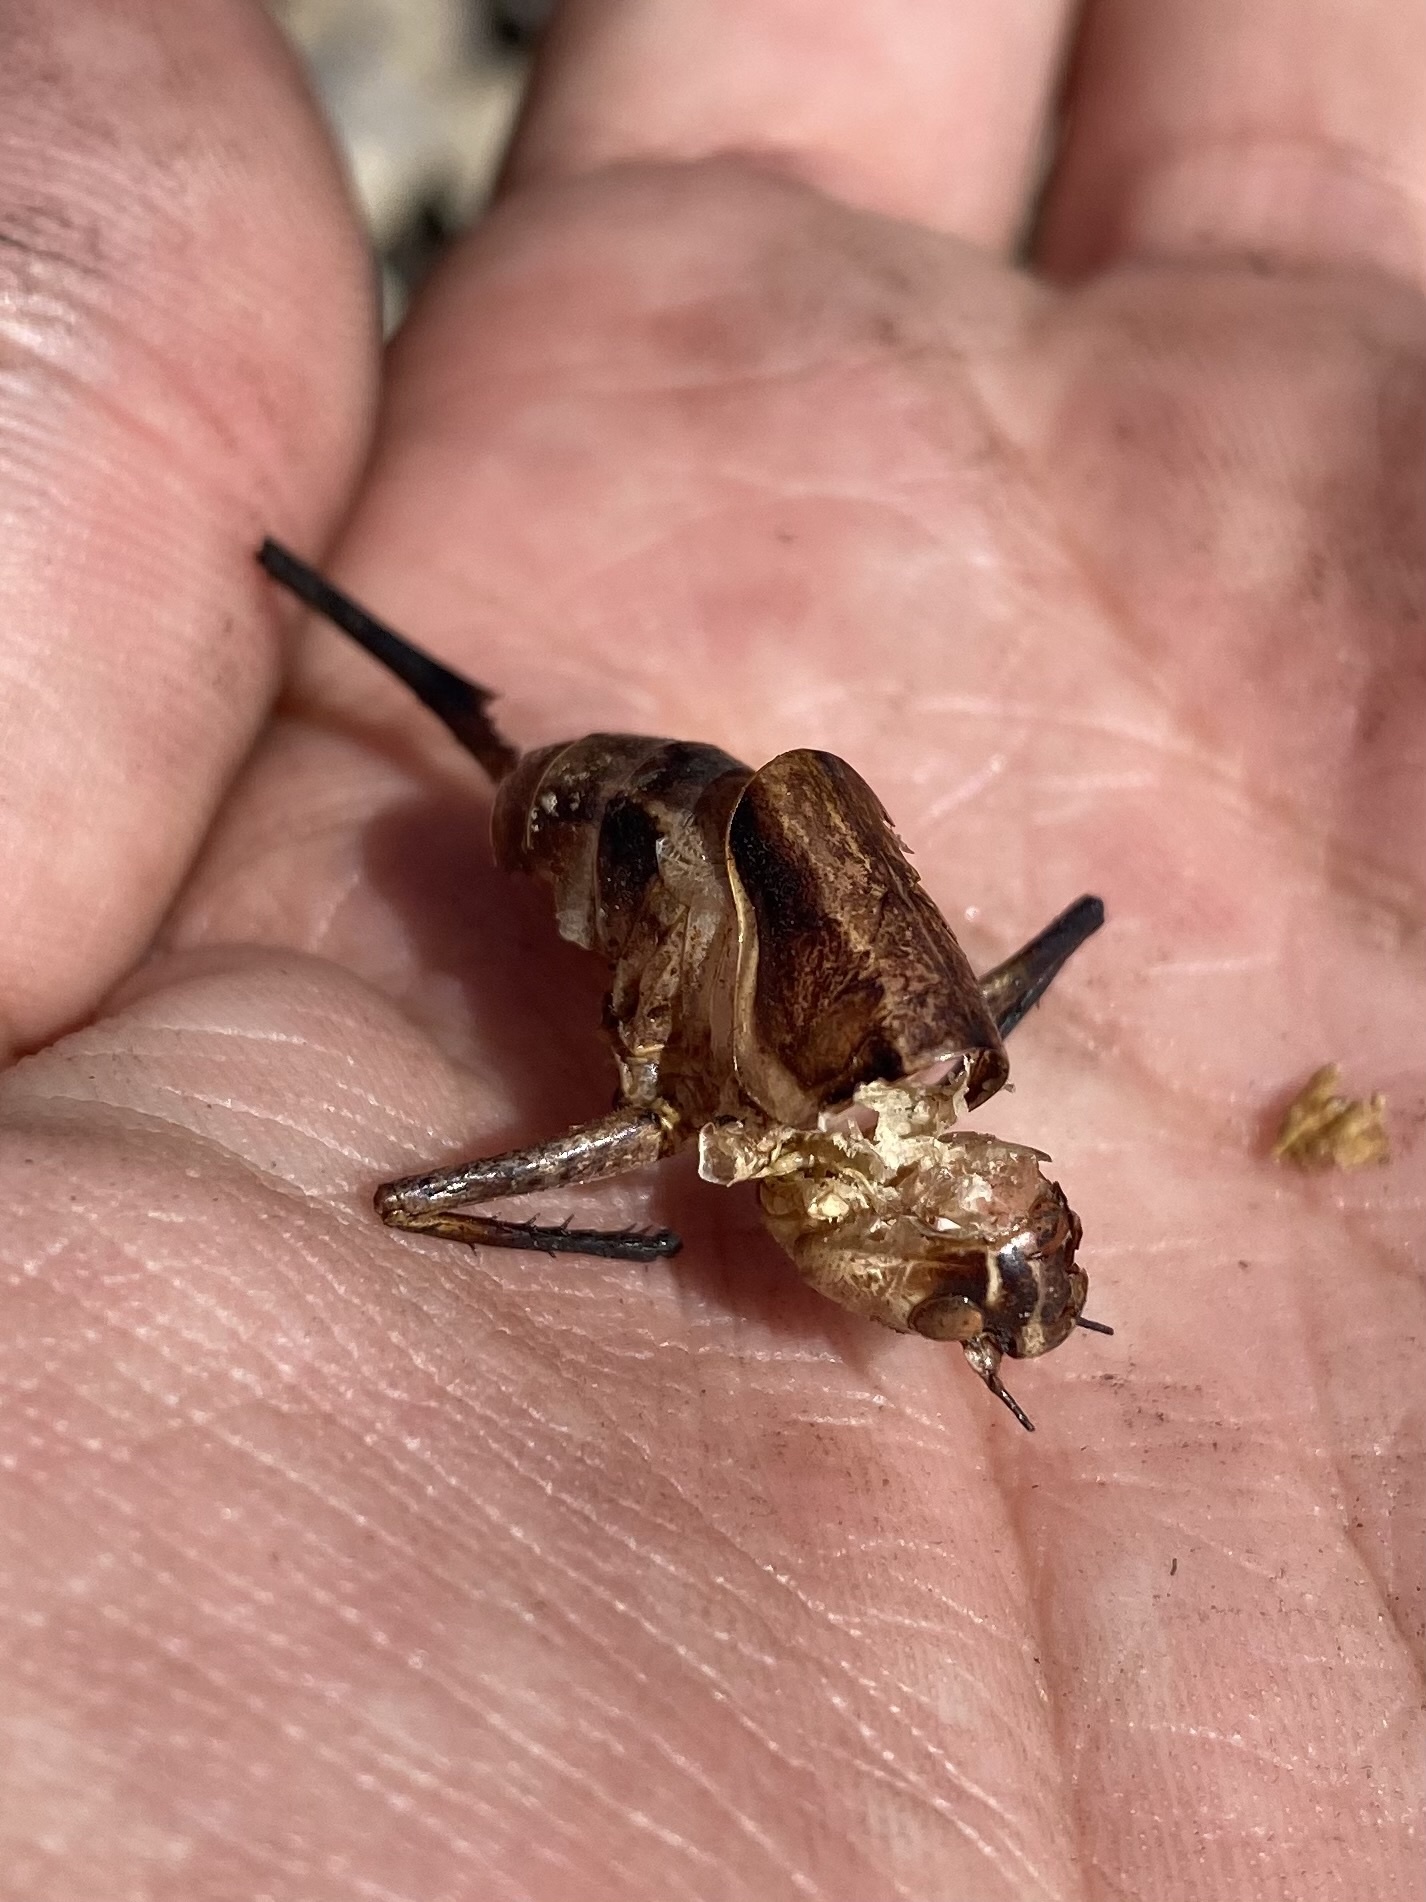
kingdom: Animalia
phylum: Arthropoda
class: Insecta
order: Orthoptera
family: Tettigoniidae
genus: Pholidoptera
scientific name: Pholidoptera pustulipes
